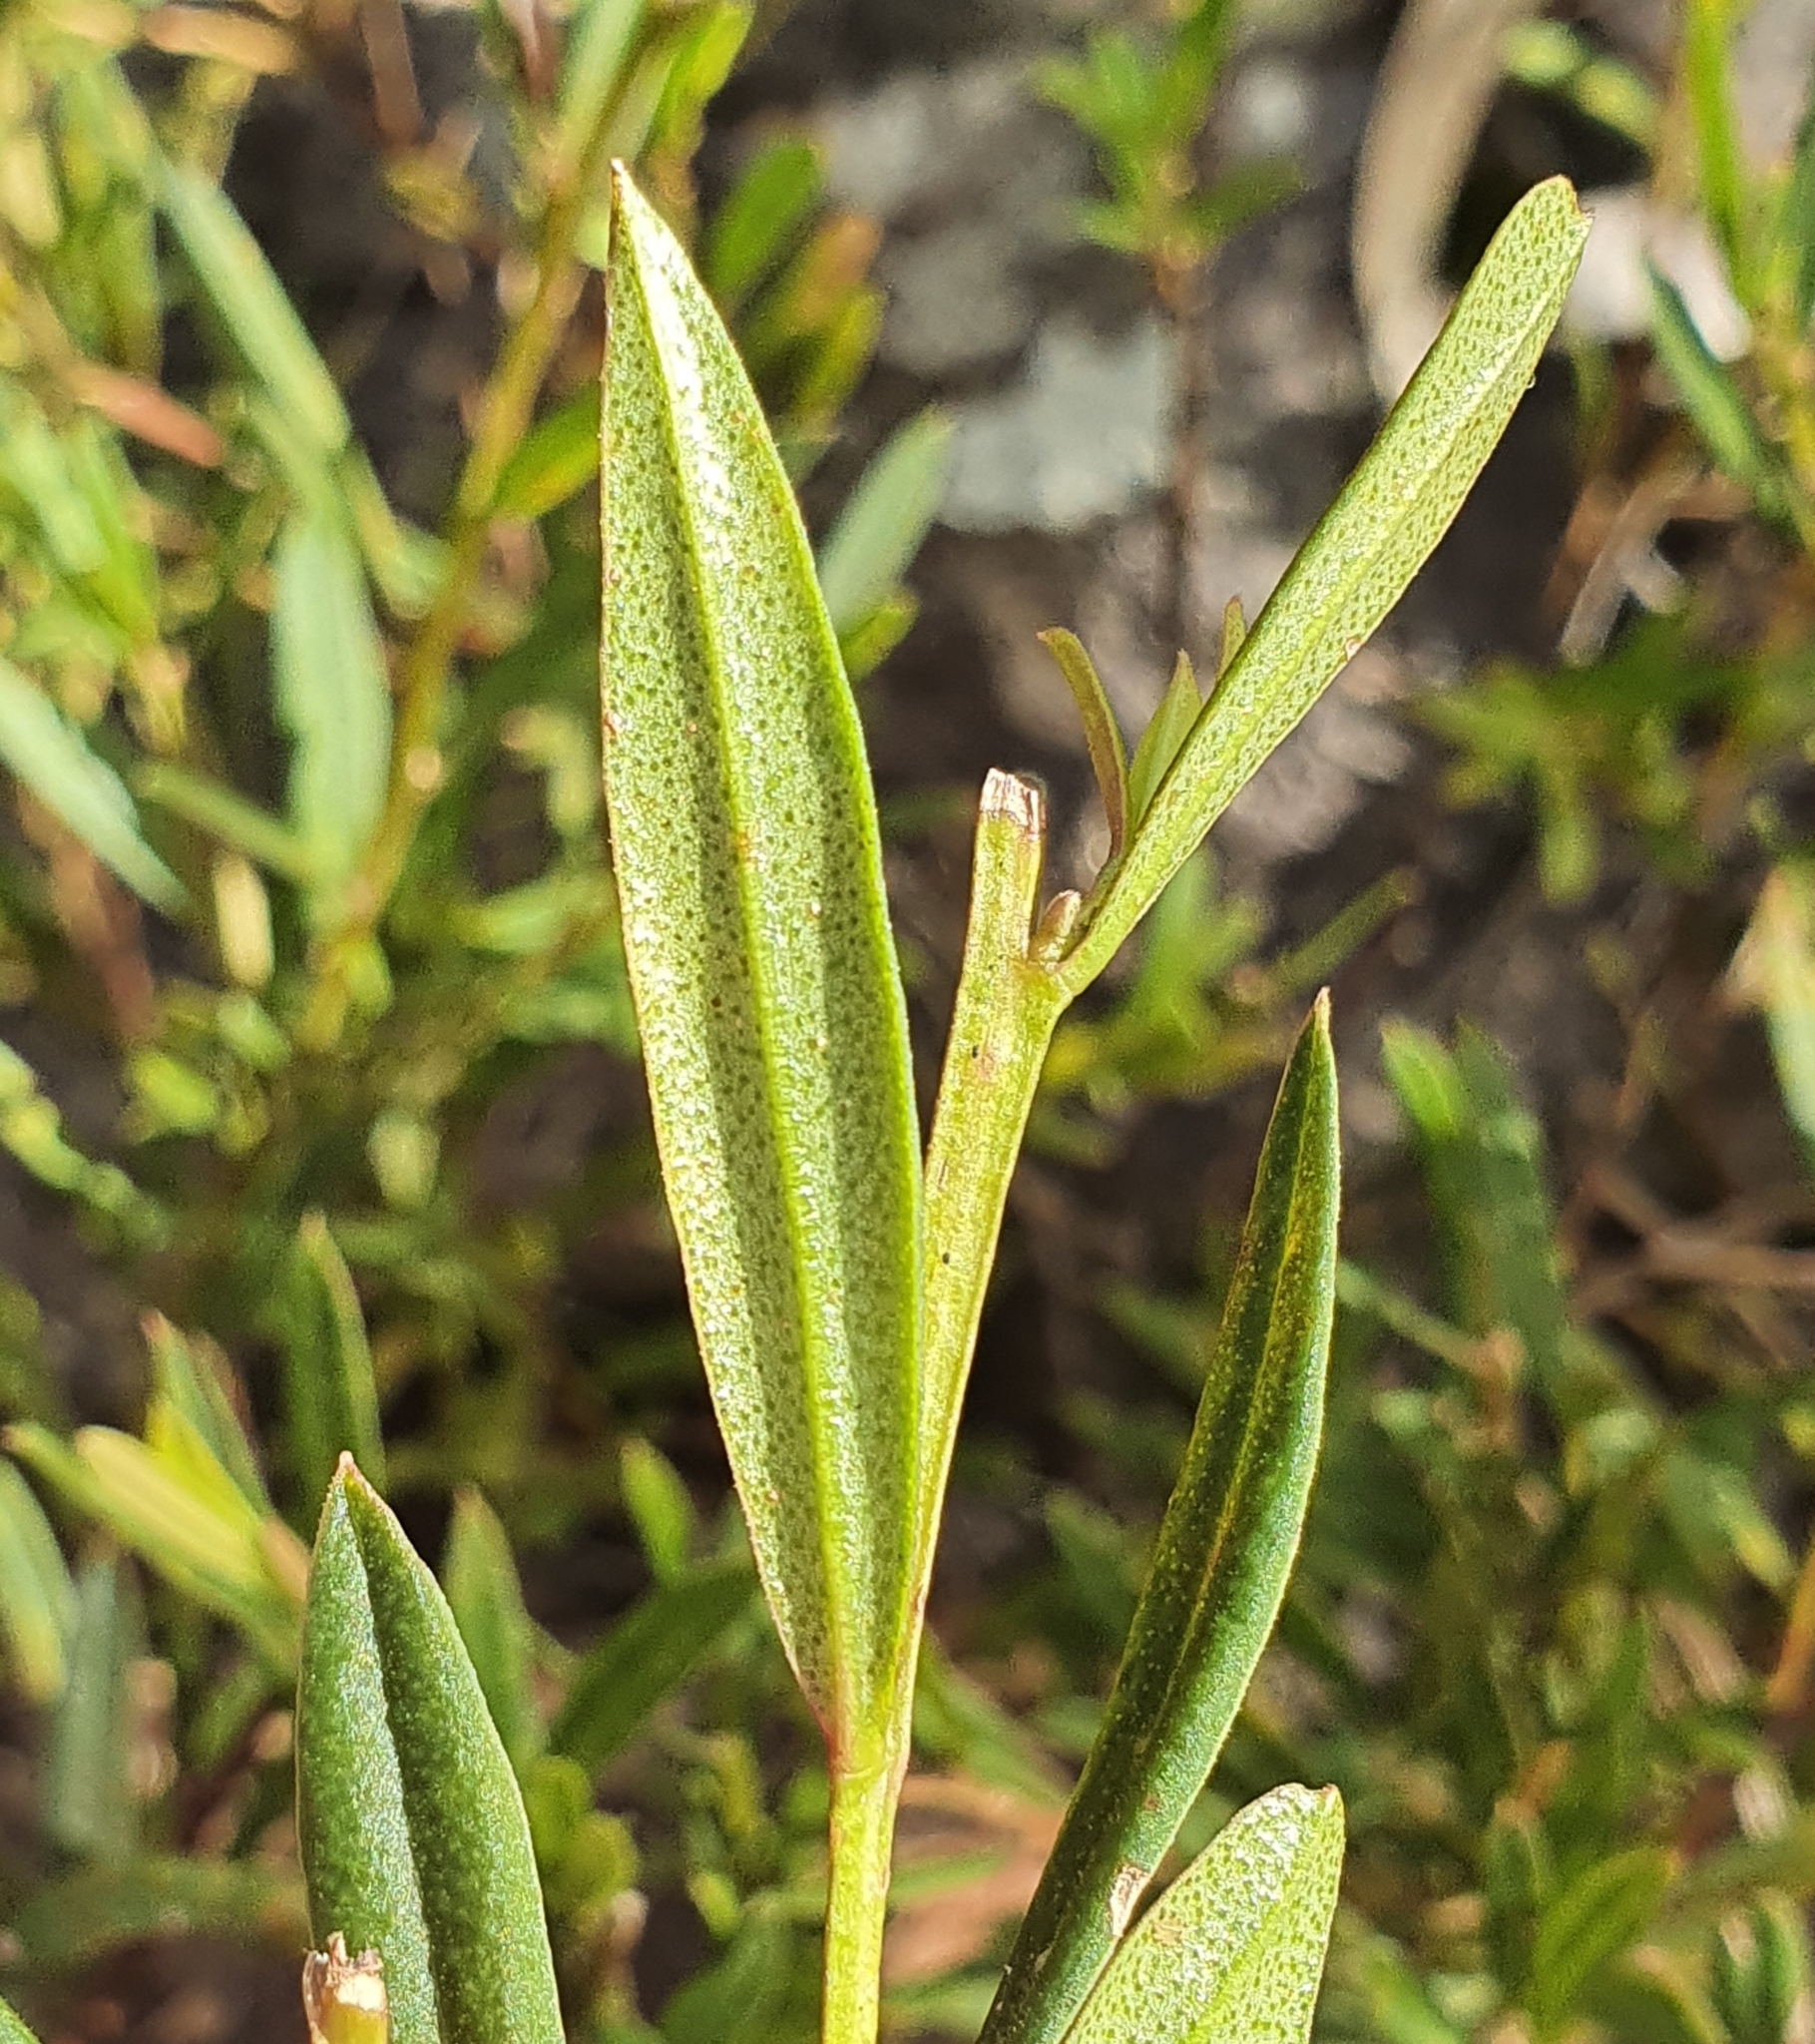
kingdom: Plantae
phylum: Tracheophyta
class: Magnoliopsida
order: Sapindales
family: Rutaceae
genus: Crowea
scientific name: Crowea saligna
